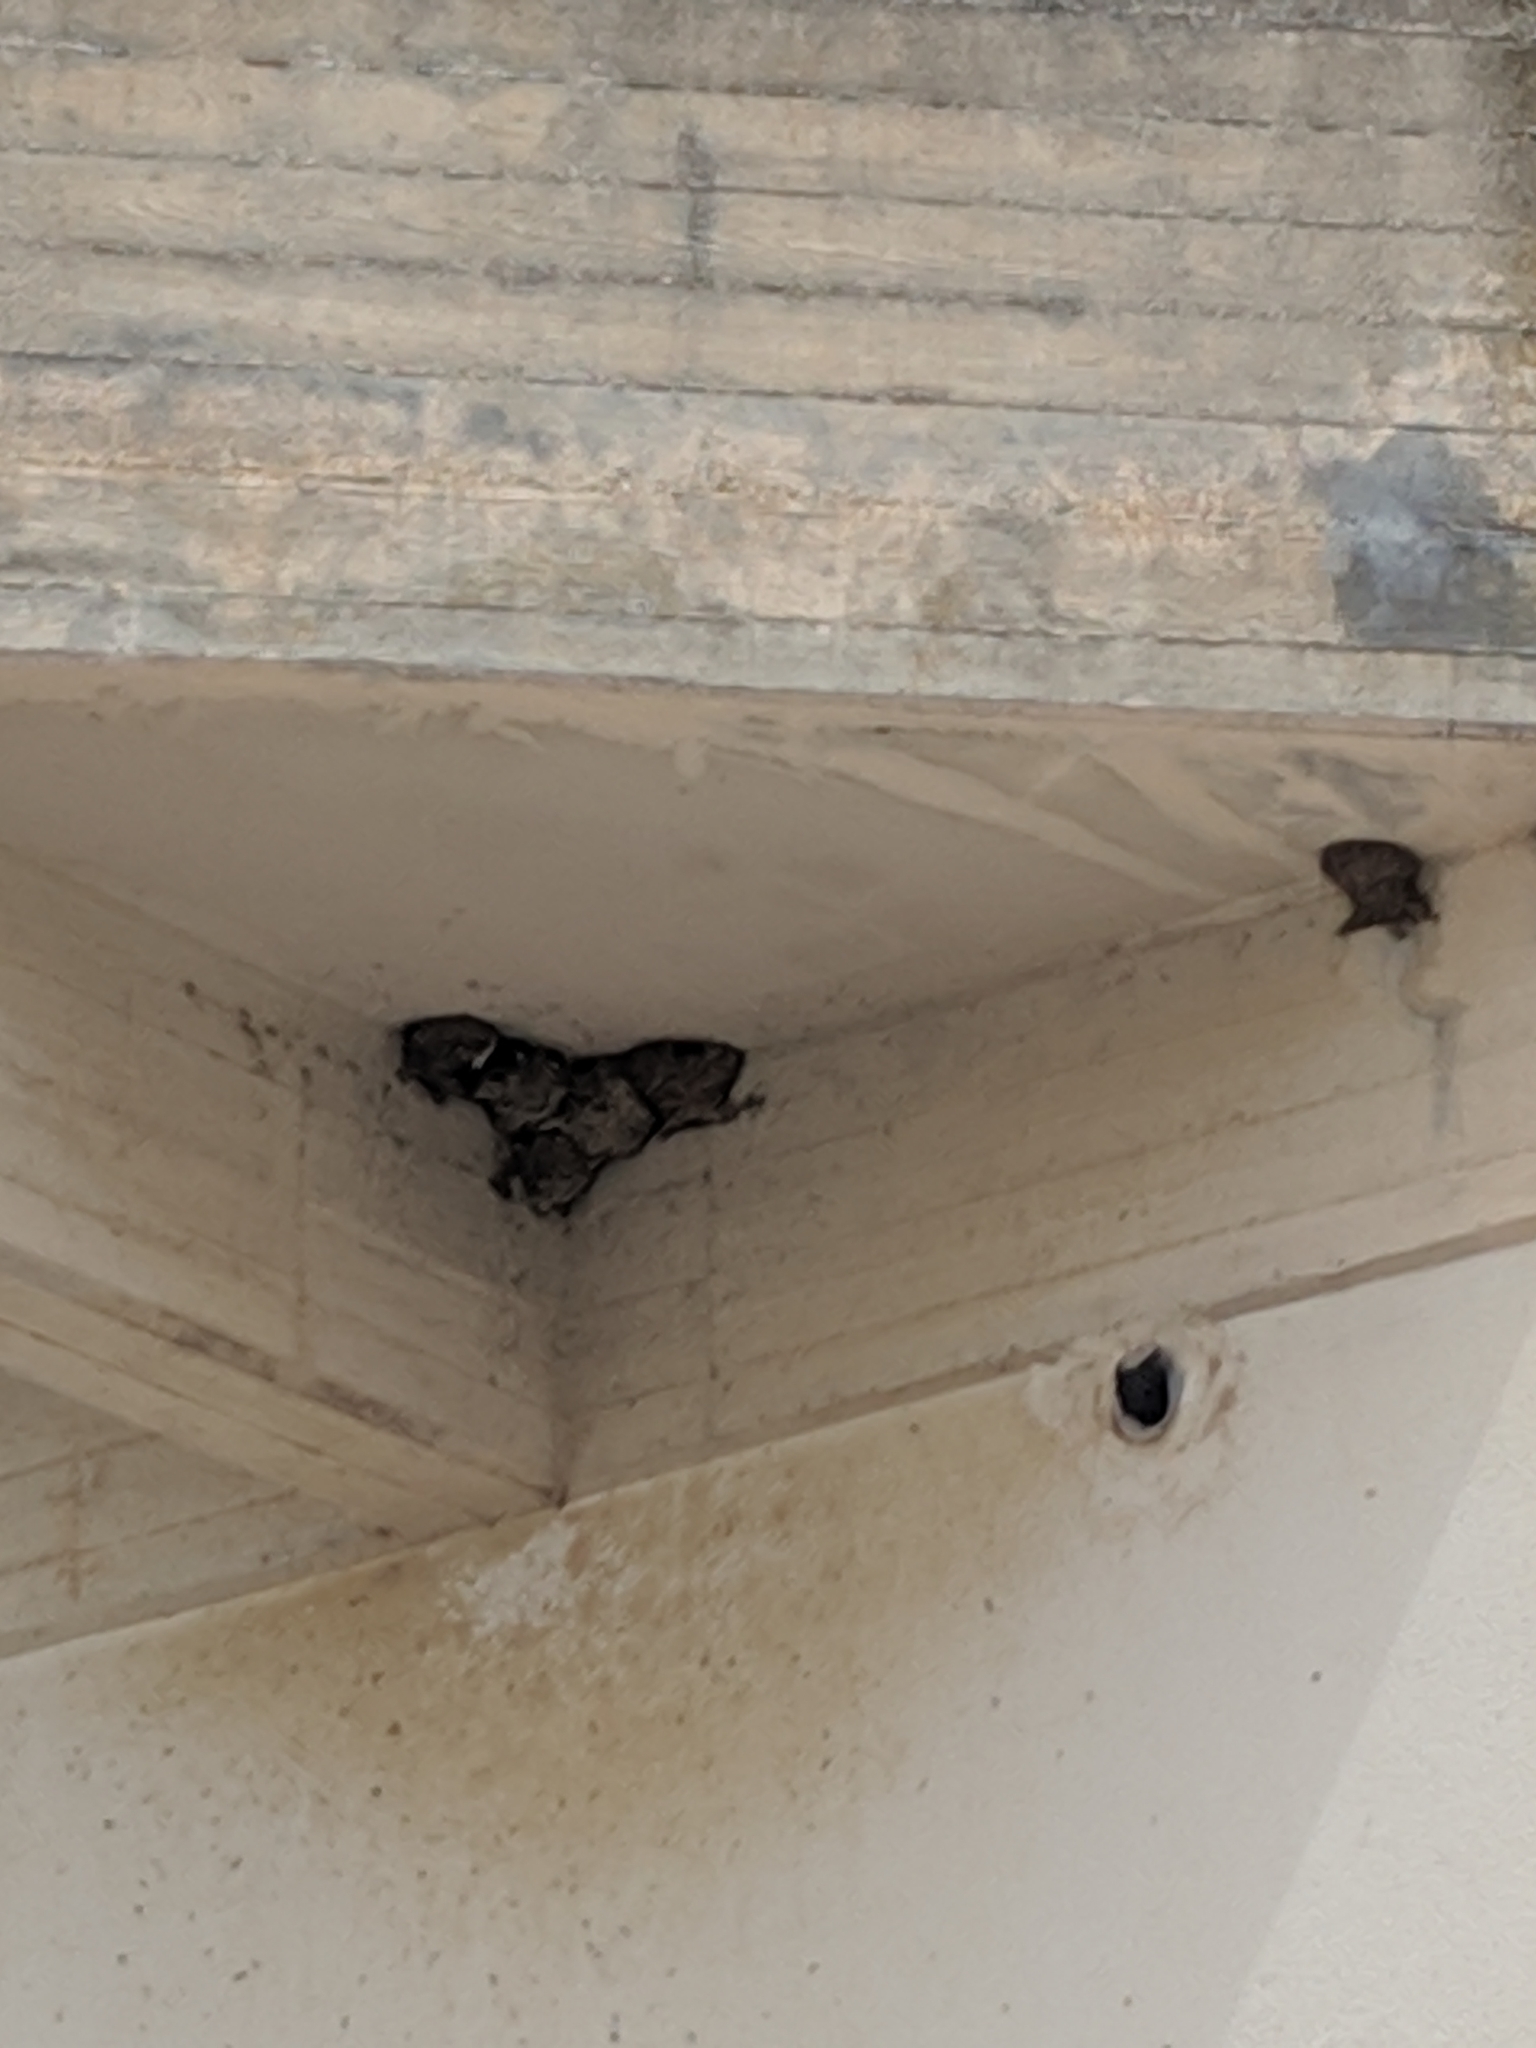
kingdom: Animalia
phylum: Chordata
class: Aves
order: Passeriformes
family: Hirundinidae
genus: Delichon
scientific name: Delichon urbicum
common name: Common house martin
